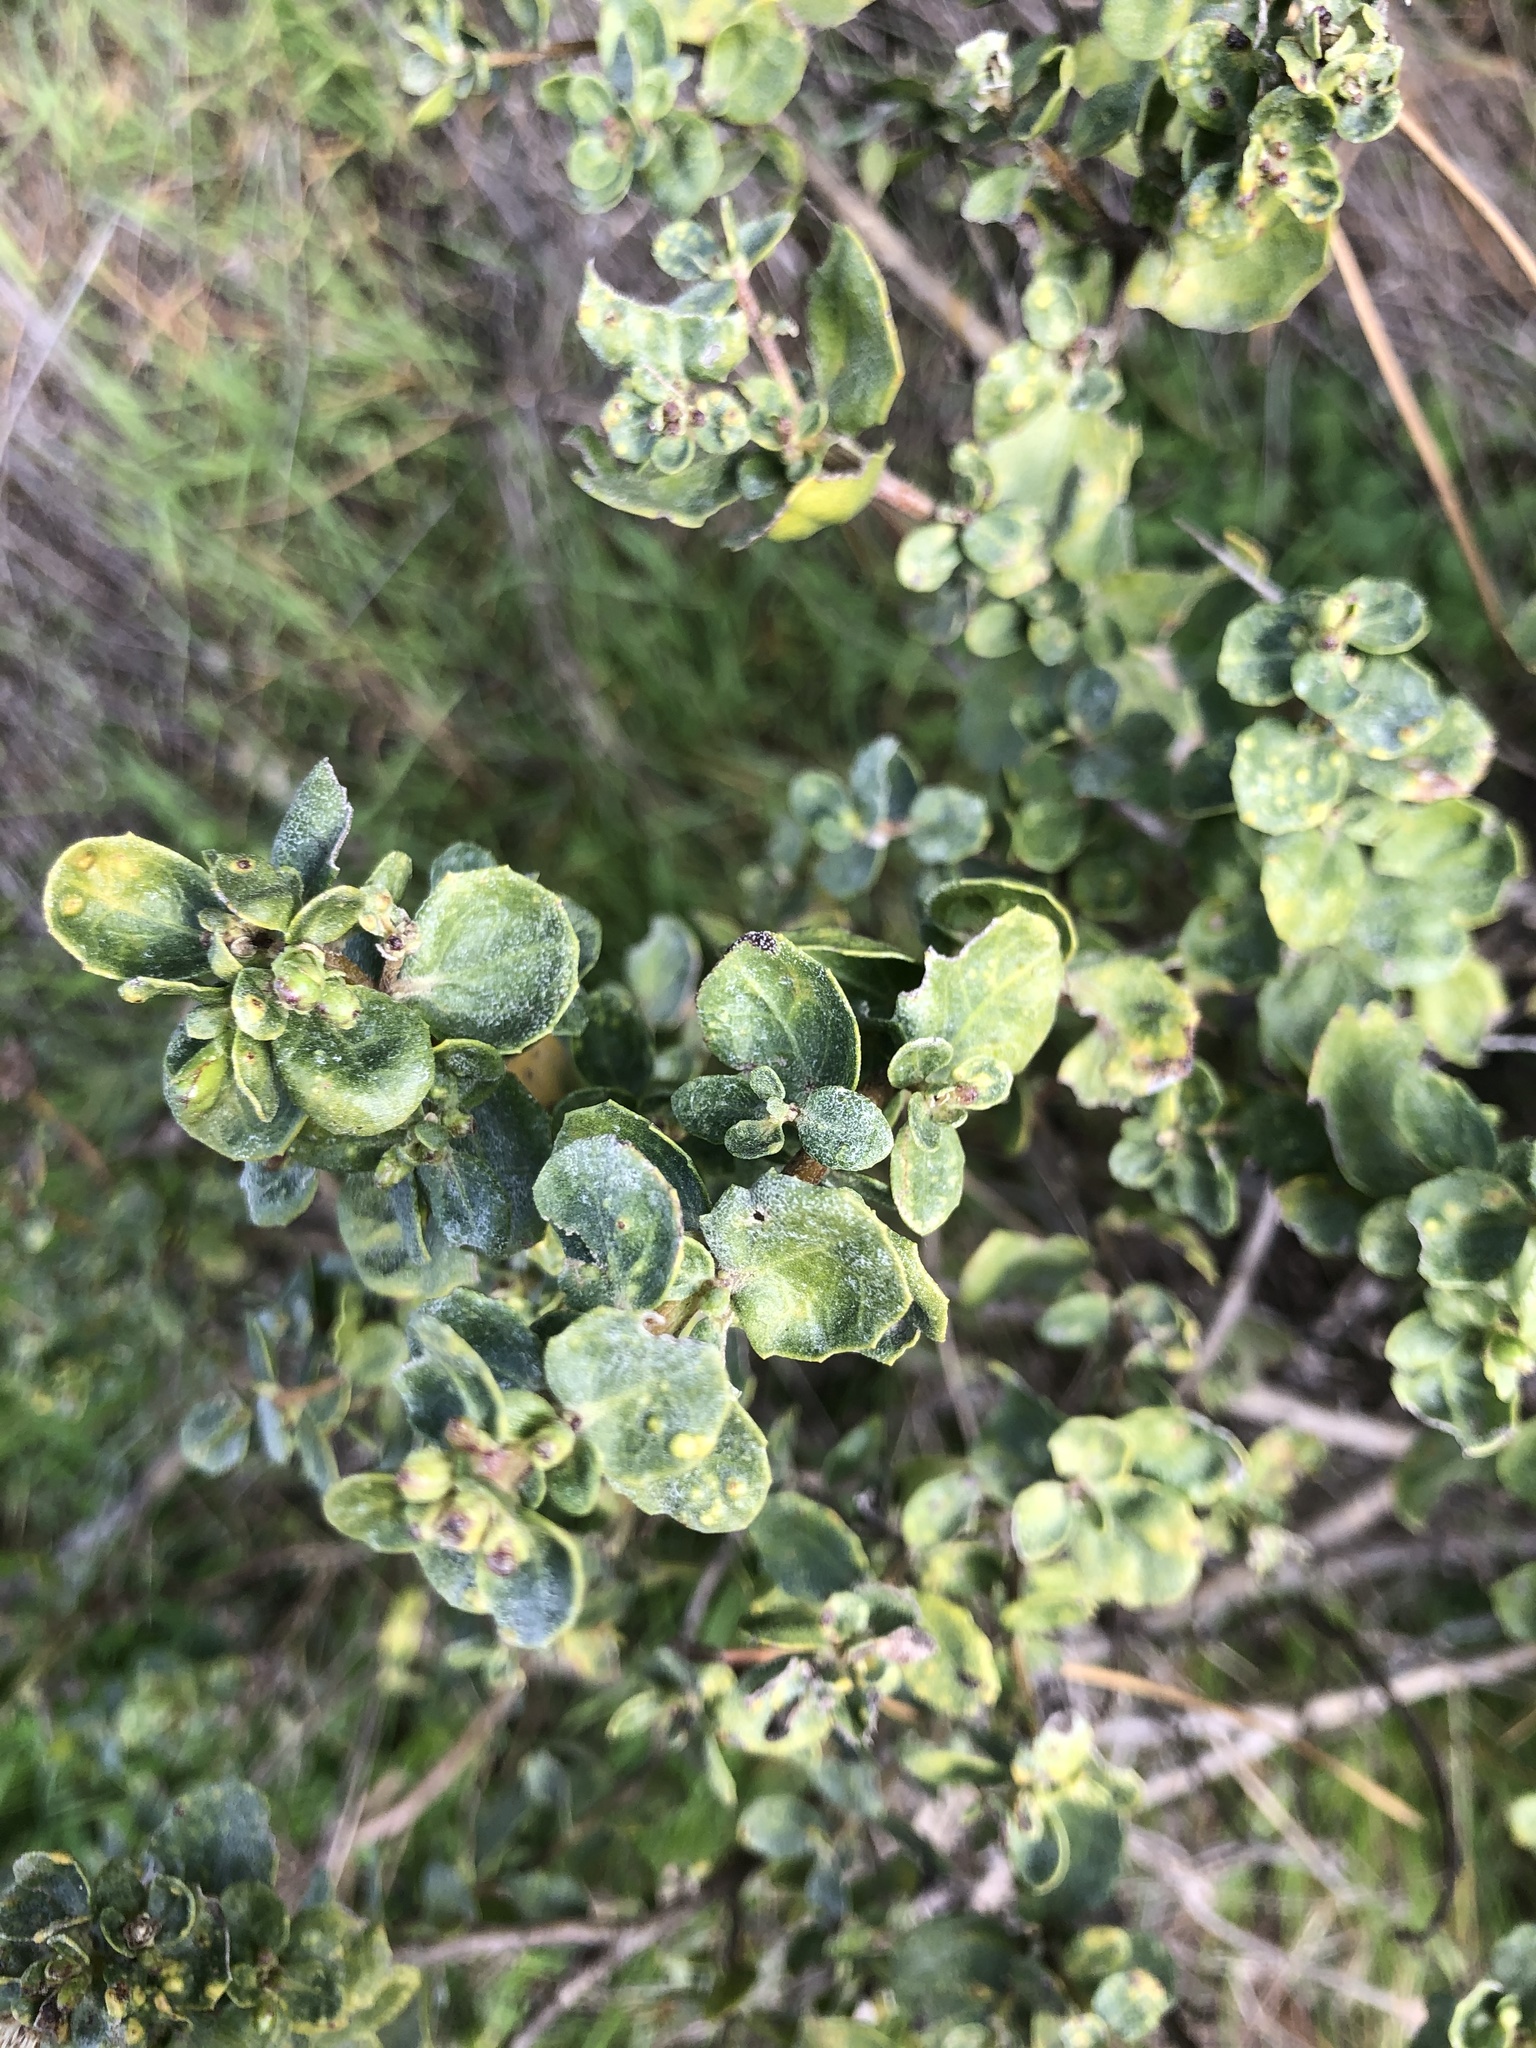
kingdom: Plantae
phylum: Tracheophyta
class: Magnoliopsida
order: Asterales
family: Asteraceae
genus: Baccharis
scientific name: Baccharis pilularis
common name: Coyotebrush
